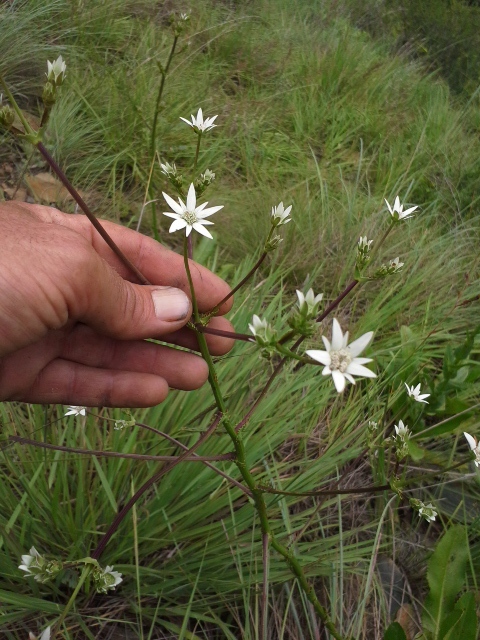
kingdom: Plantae
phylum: Tracheophyta
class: Magnoliopsida
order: Apiales
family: Apiaceae
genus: Alepidea
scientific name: Alepidea peduncularis
